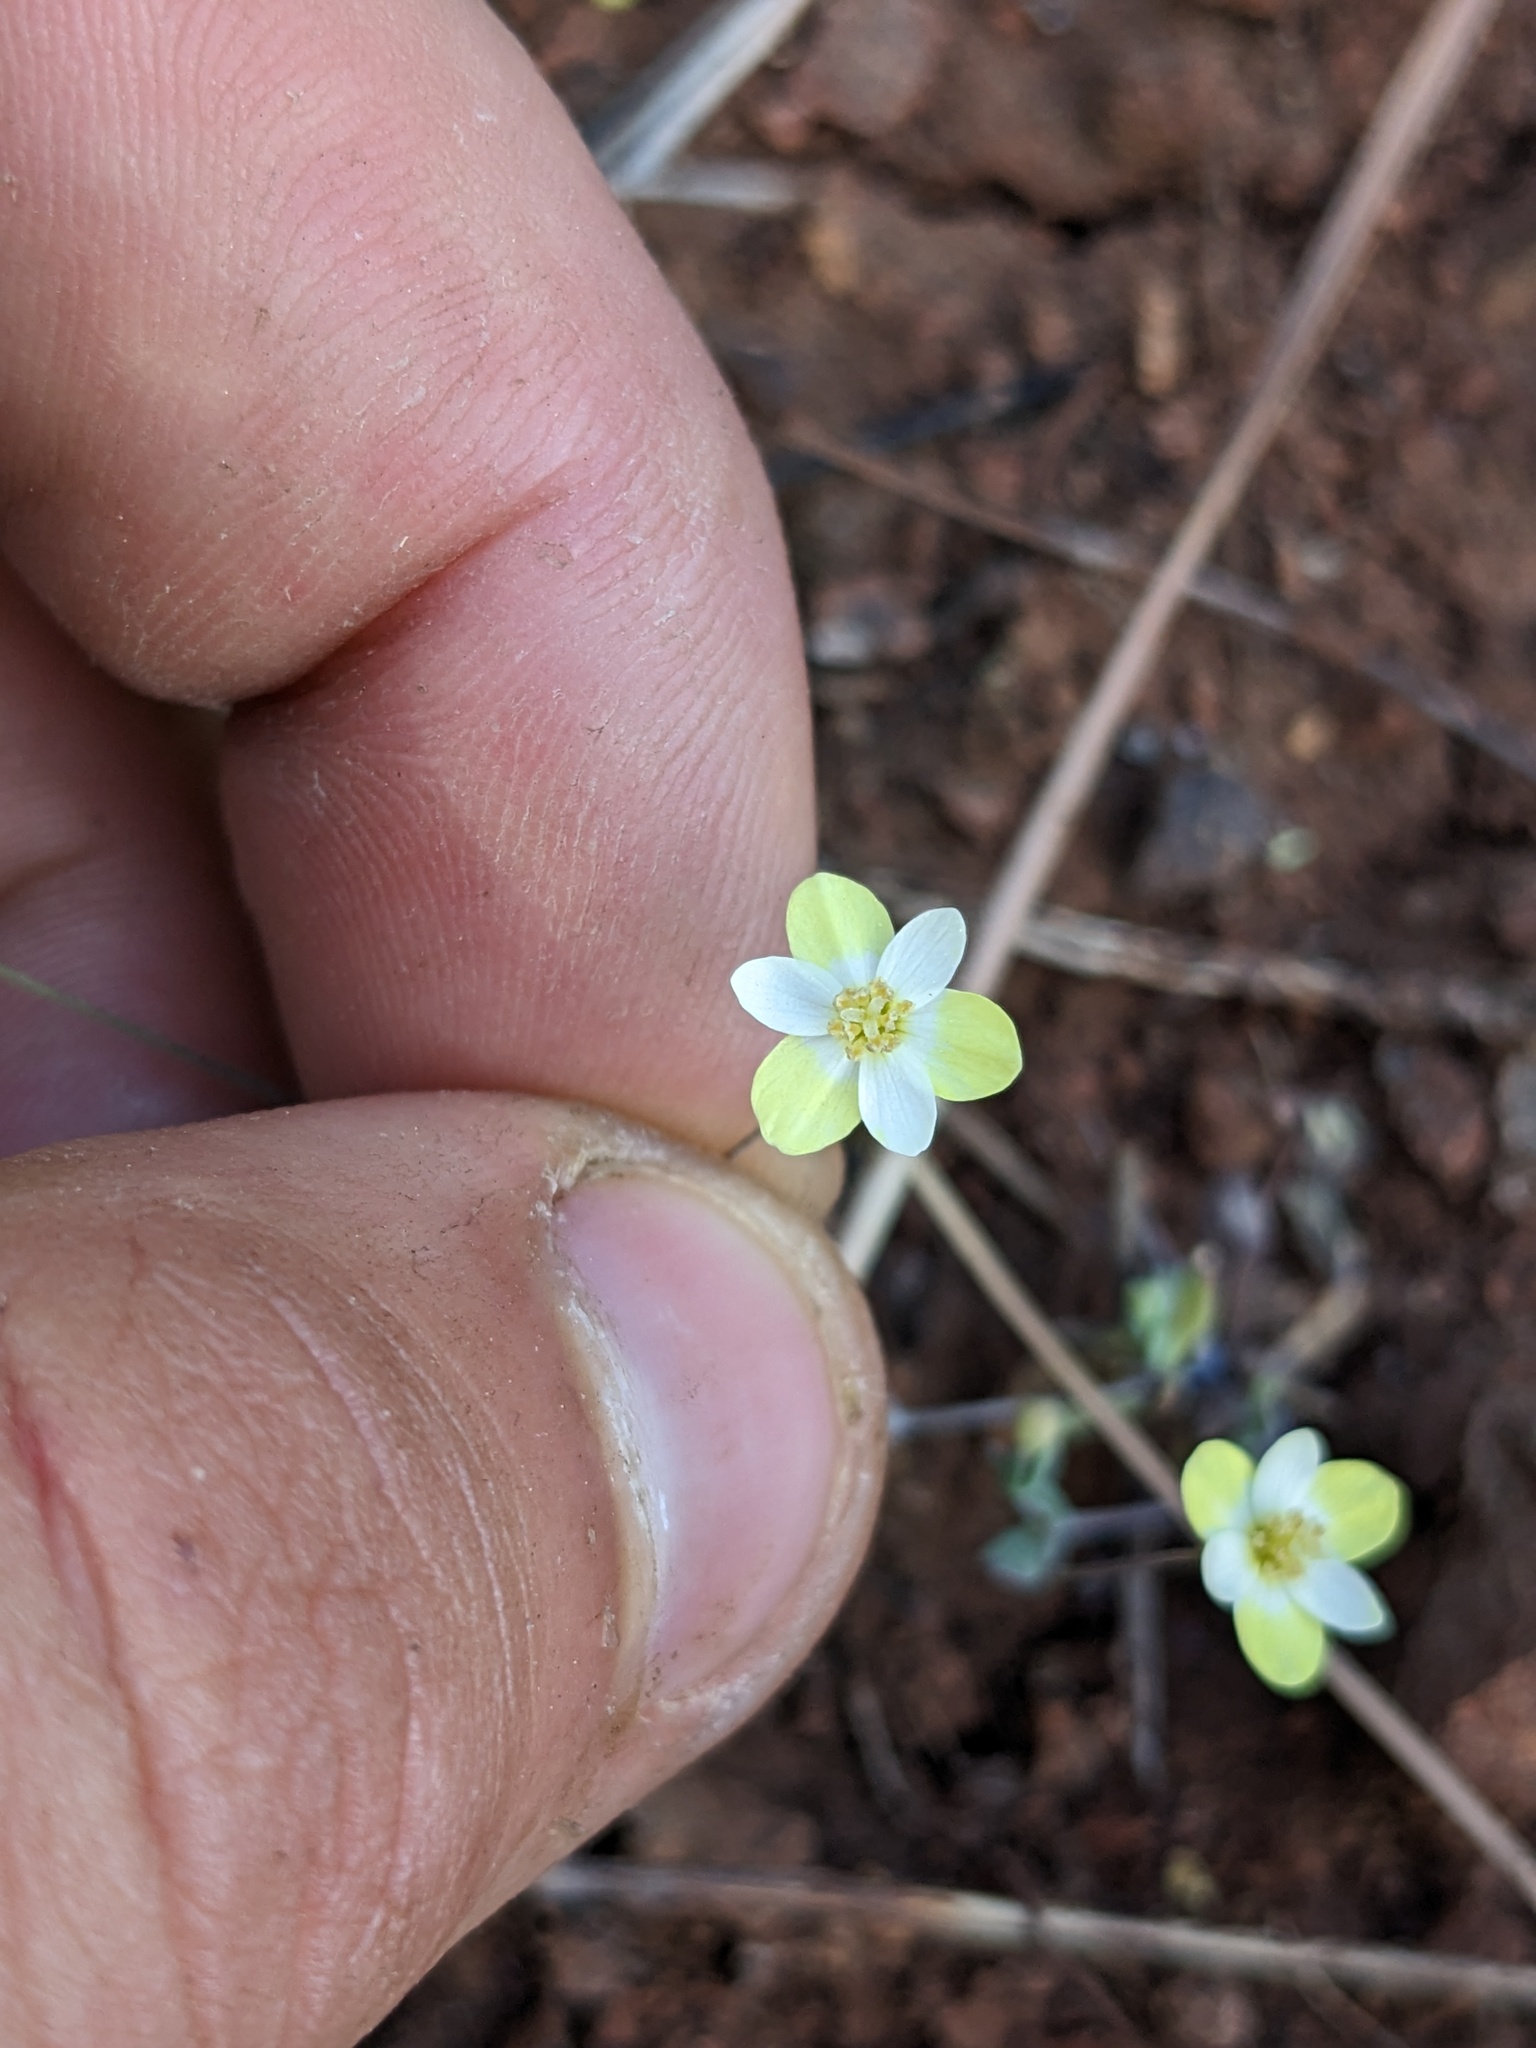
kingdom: Plantae
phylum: Tracheophyta
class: Magnoliopsida
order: Ranunculales
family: Papaveraceae
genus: Meconella
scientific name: Meconella californica
